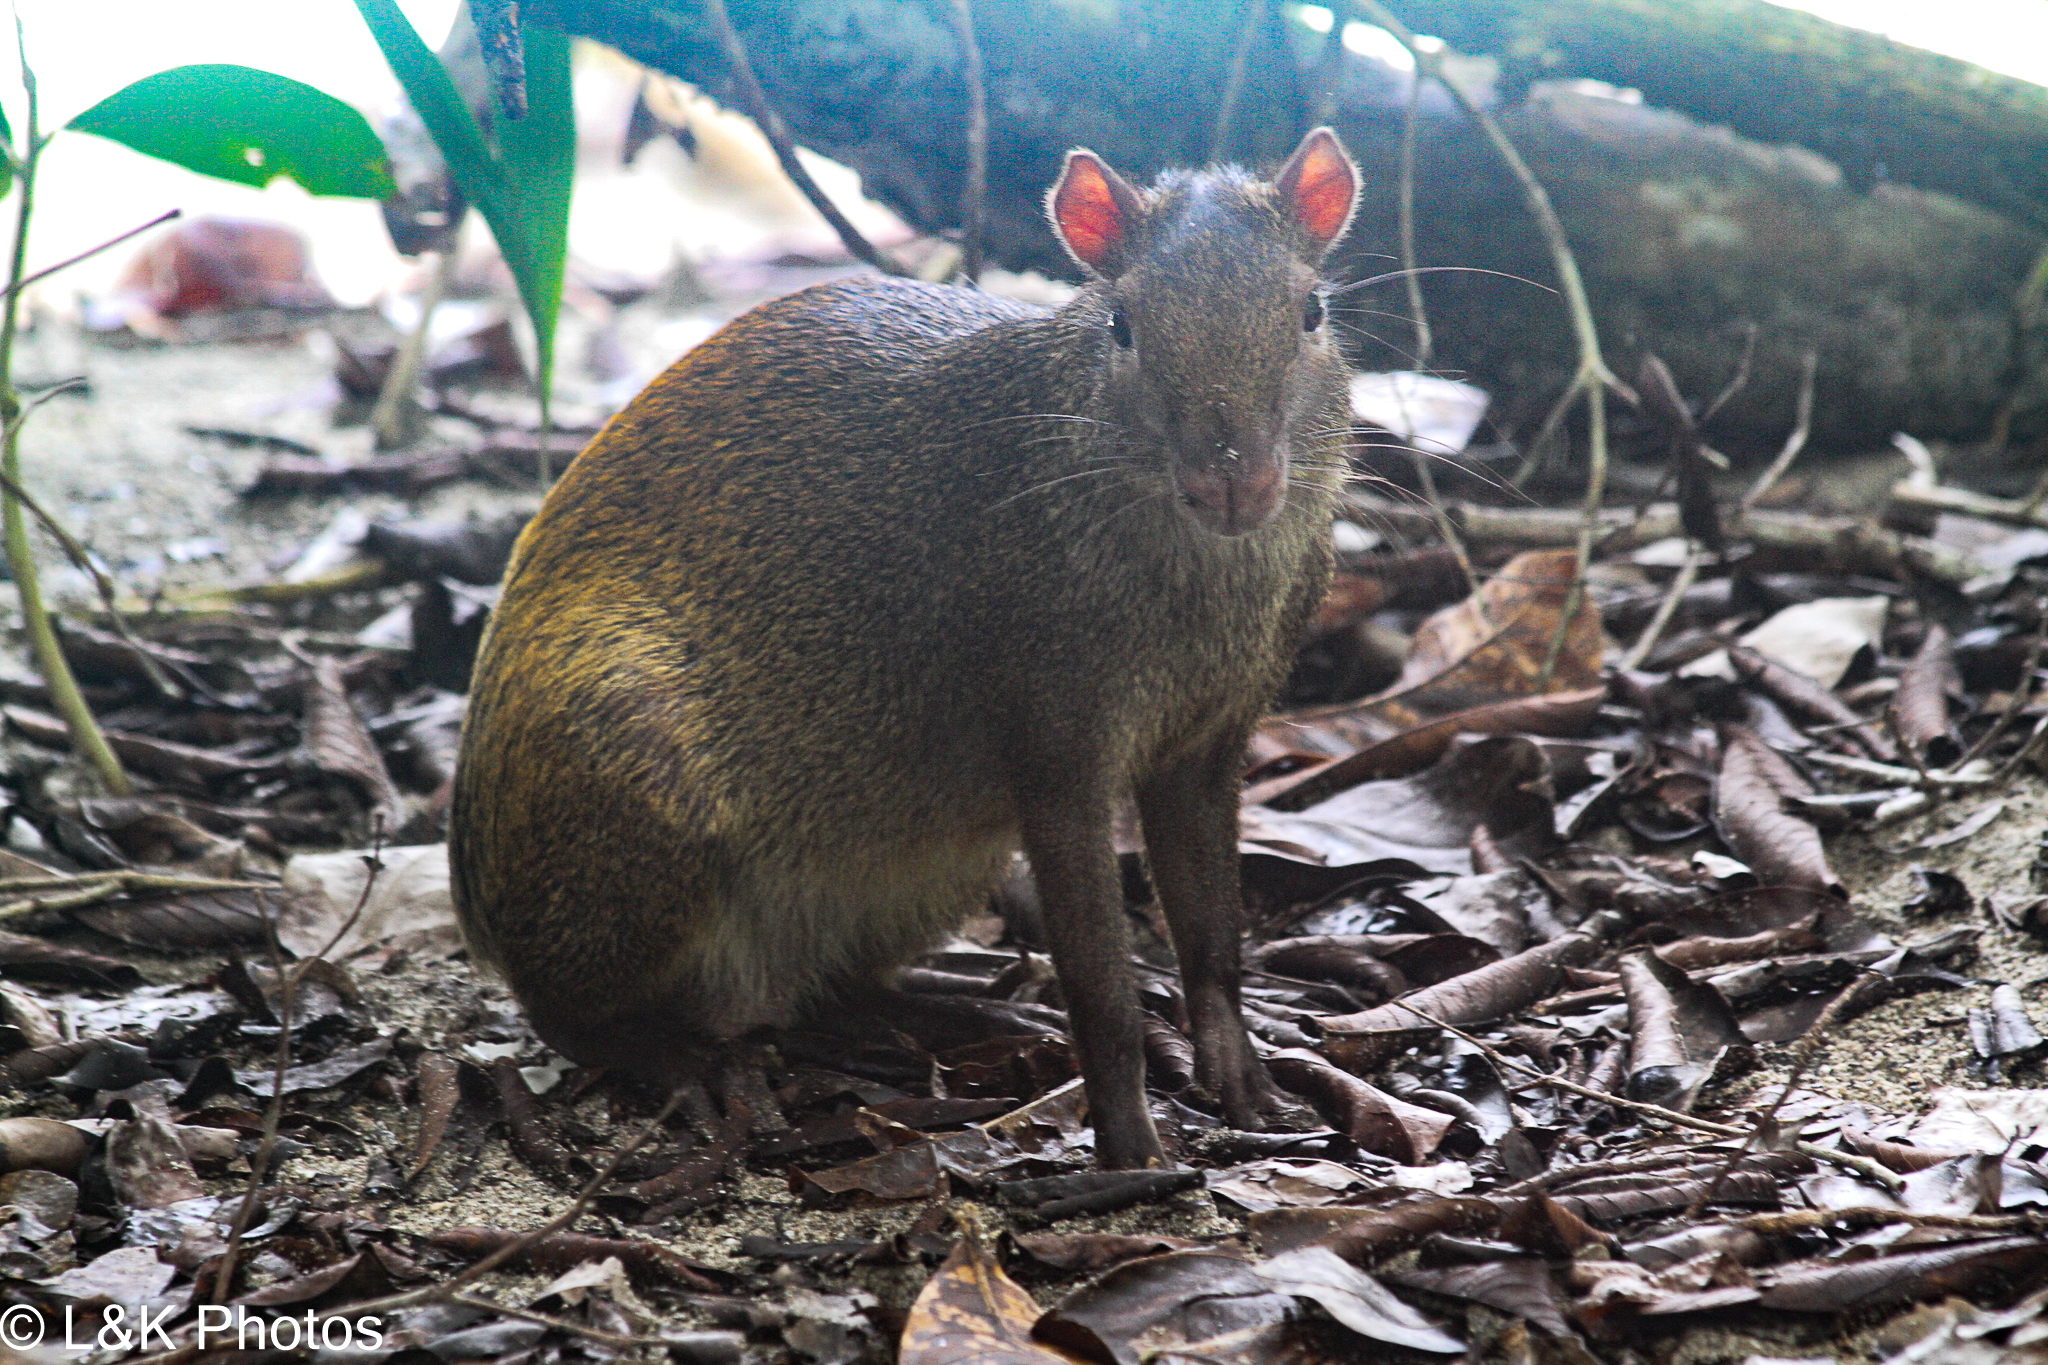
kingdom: Animalia
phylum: Chordata
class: Mammalia
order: Rodentia
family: Dasyproctidae
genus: Dasyprocta
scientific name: Dasyprocta punctata
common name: Central american agouti
